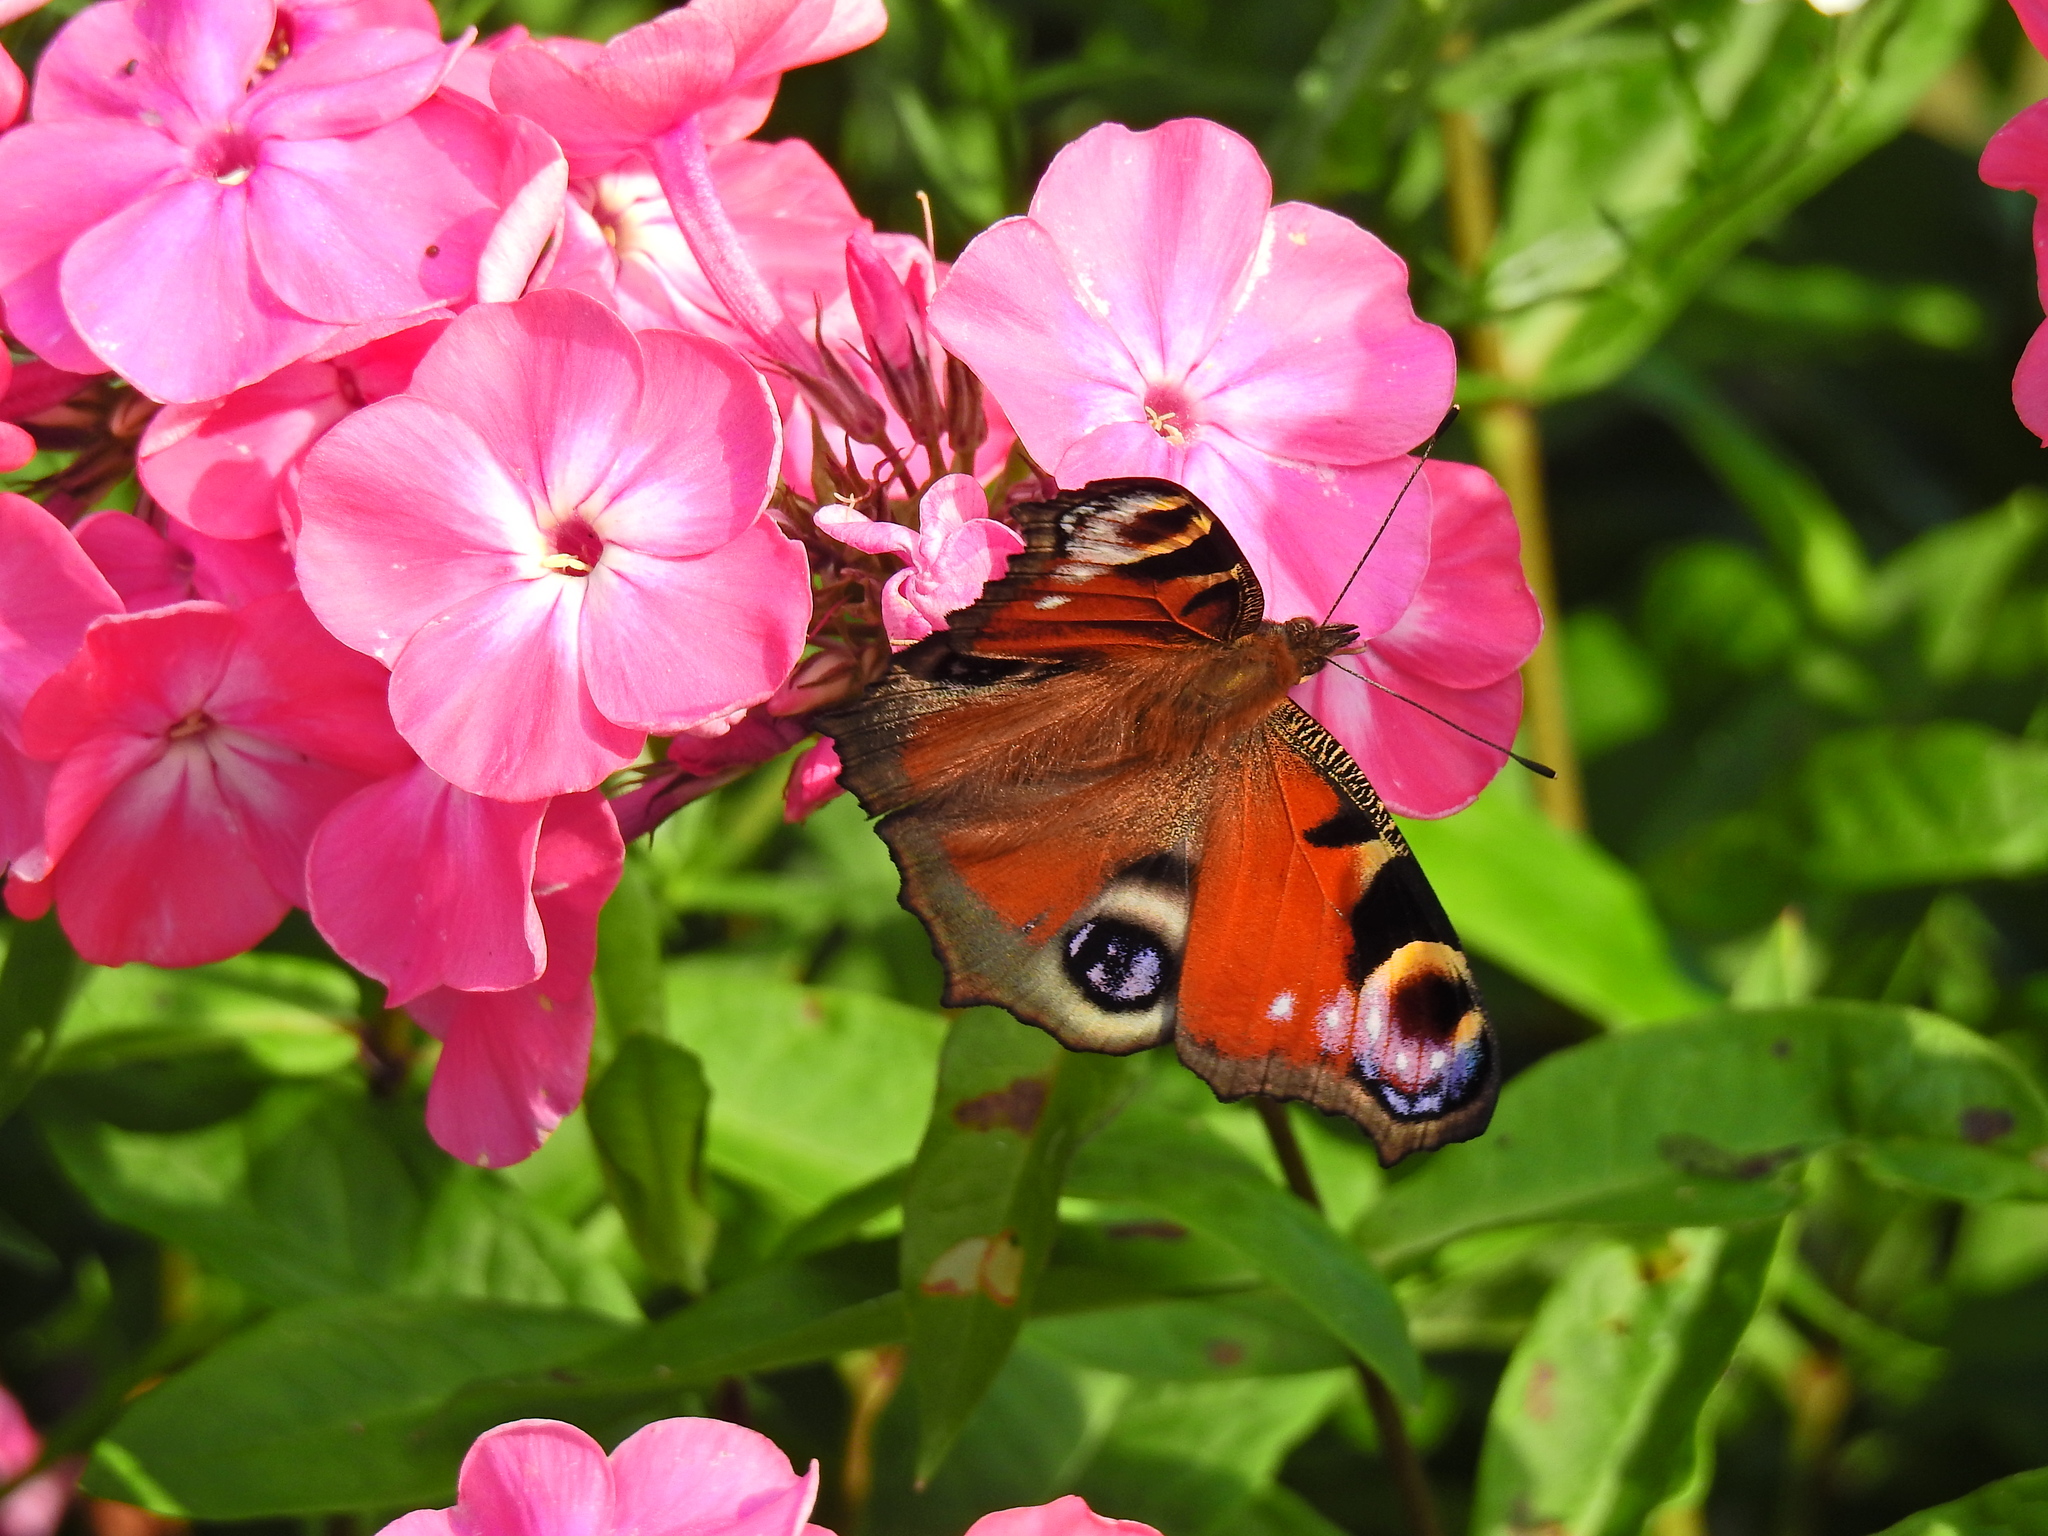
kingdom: Animalia
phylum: Arthropoda
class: Insecta
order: Lepidoptera
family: Nymphalidae
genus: Aglais
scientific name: Aglais io
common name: Peacock
